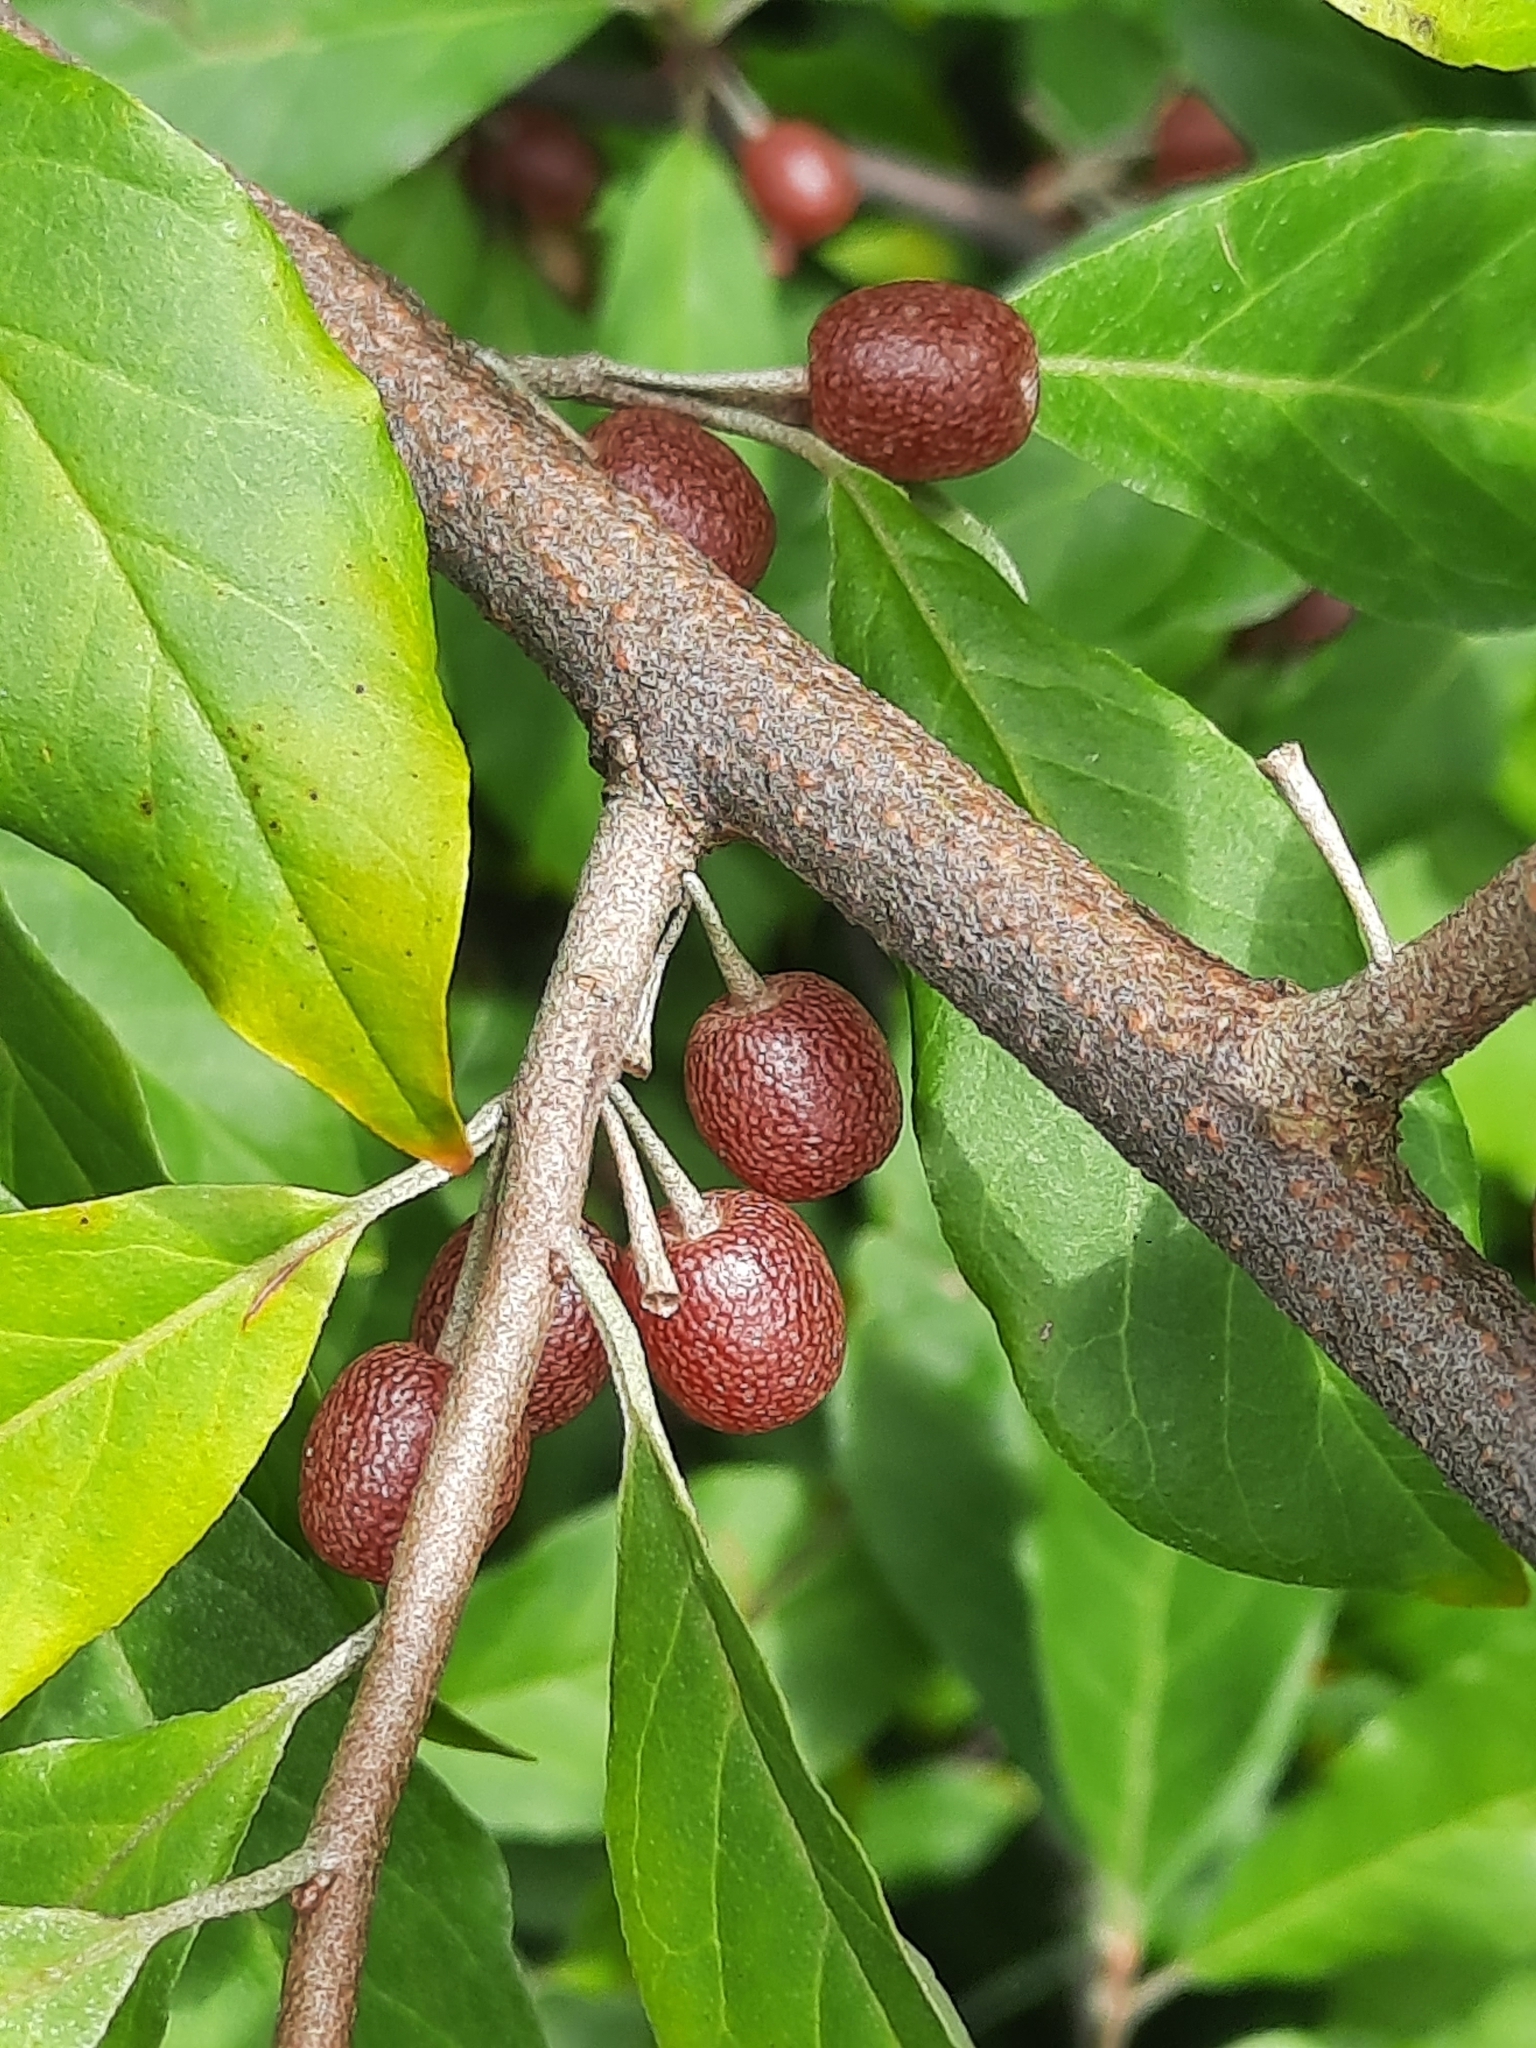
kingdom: Plantae
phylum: Tracheophyta
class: Magnoliopsida
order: Rosales
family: Elaeagnaceae
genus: Elaeagnus
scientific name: Elaeagnus umbellata
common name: Autumn olive
